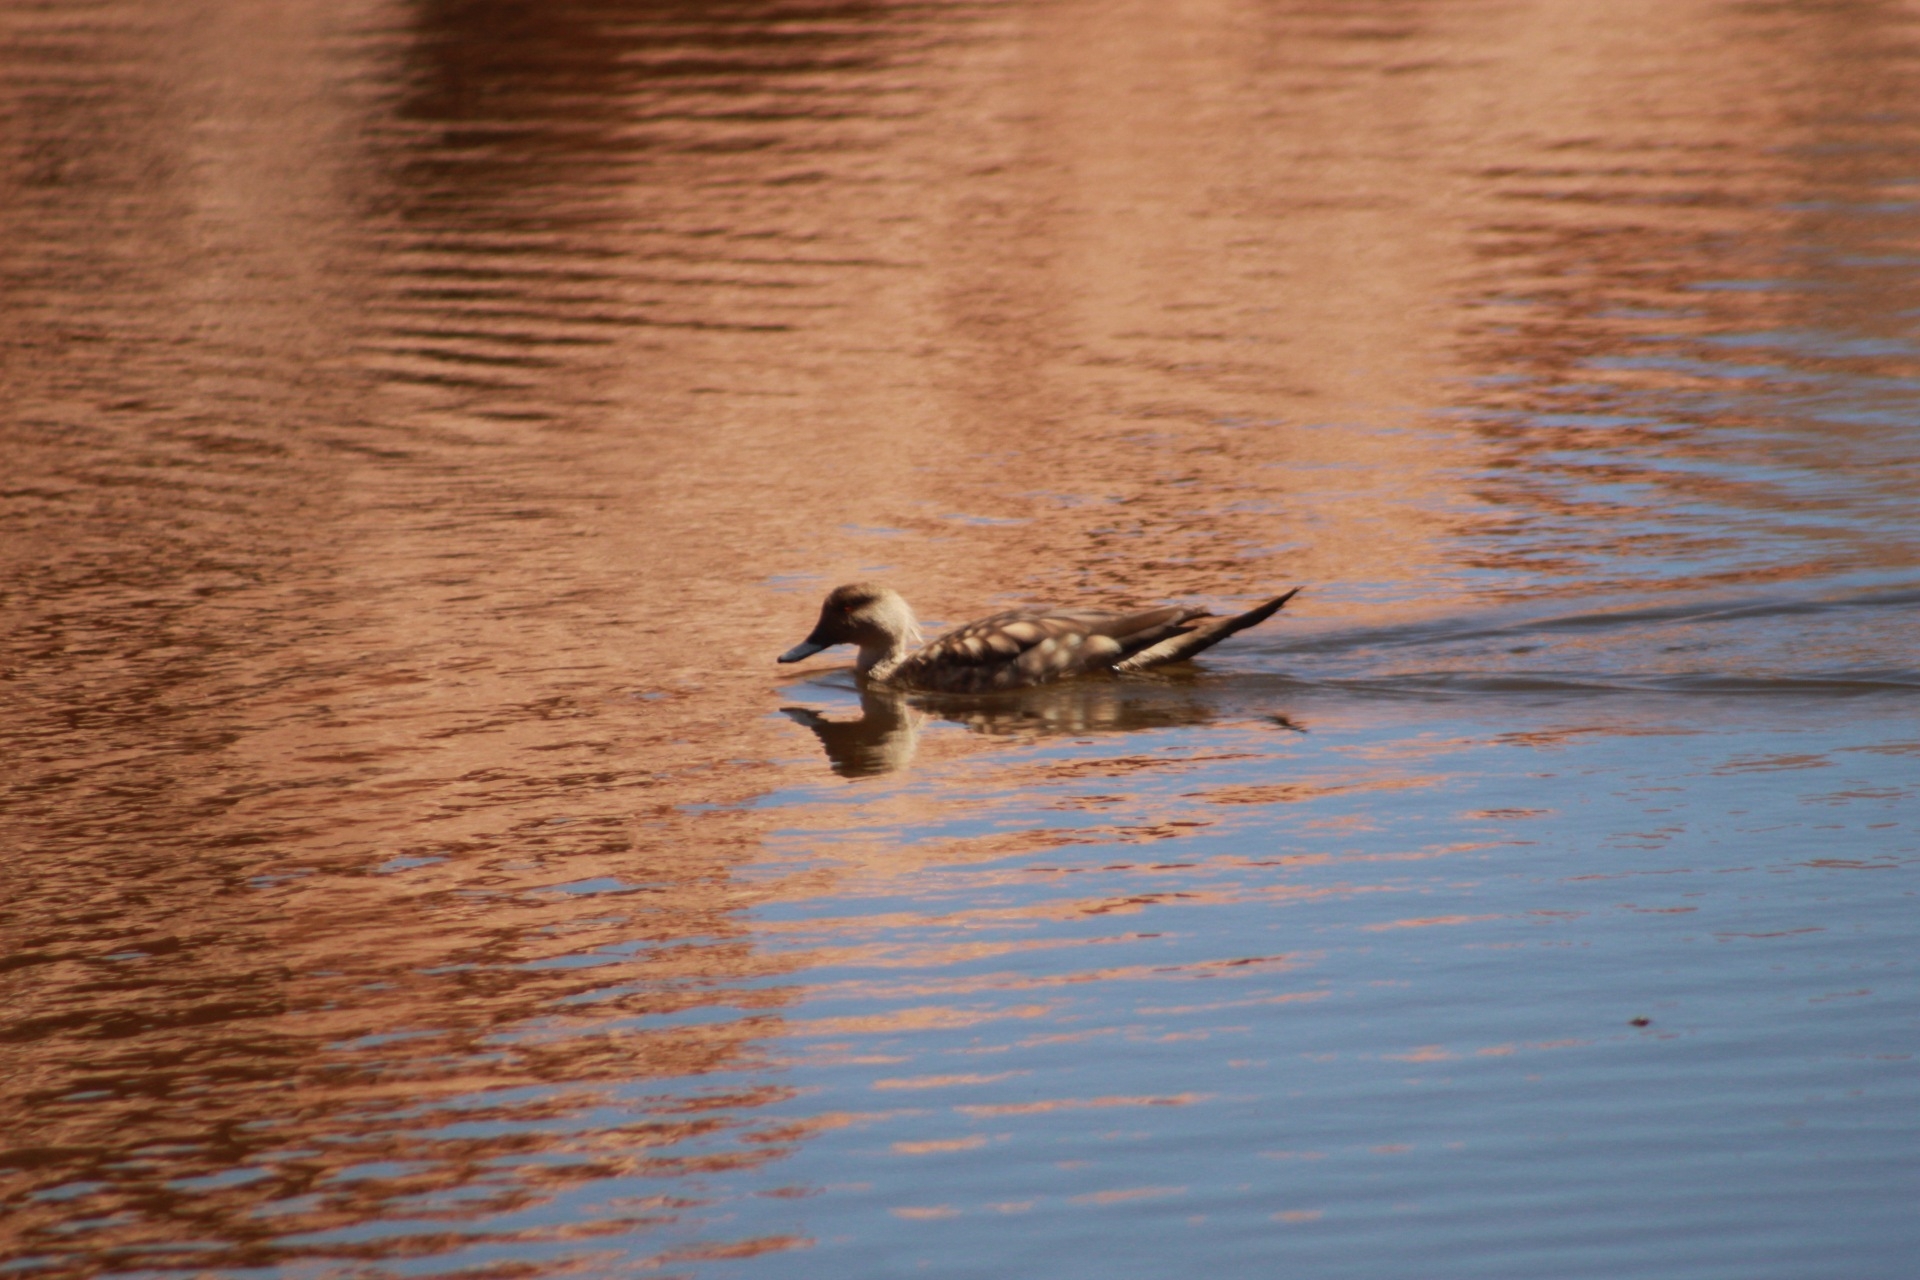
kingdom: Animalia
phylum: Chordata
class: Aves
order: Anseriformes
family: Anatidae
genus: Lophonetta
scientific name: Lophonetta specularioides
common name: Crested duck
